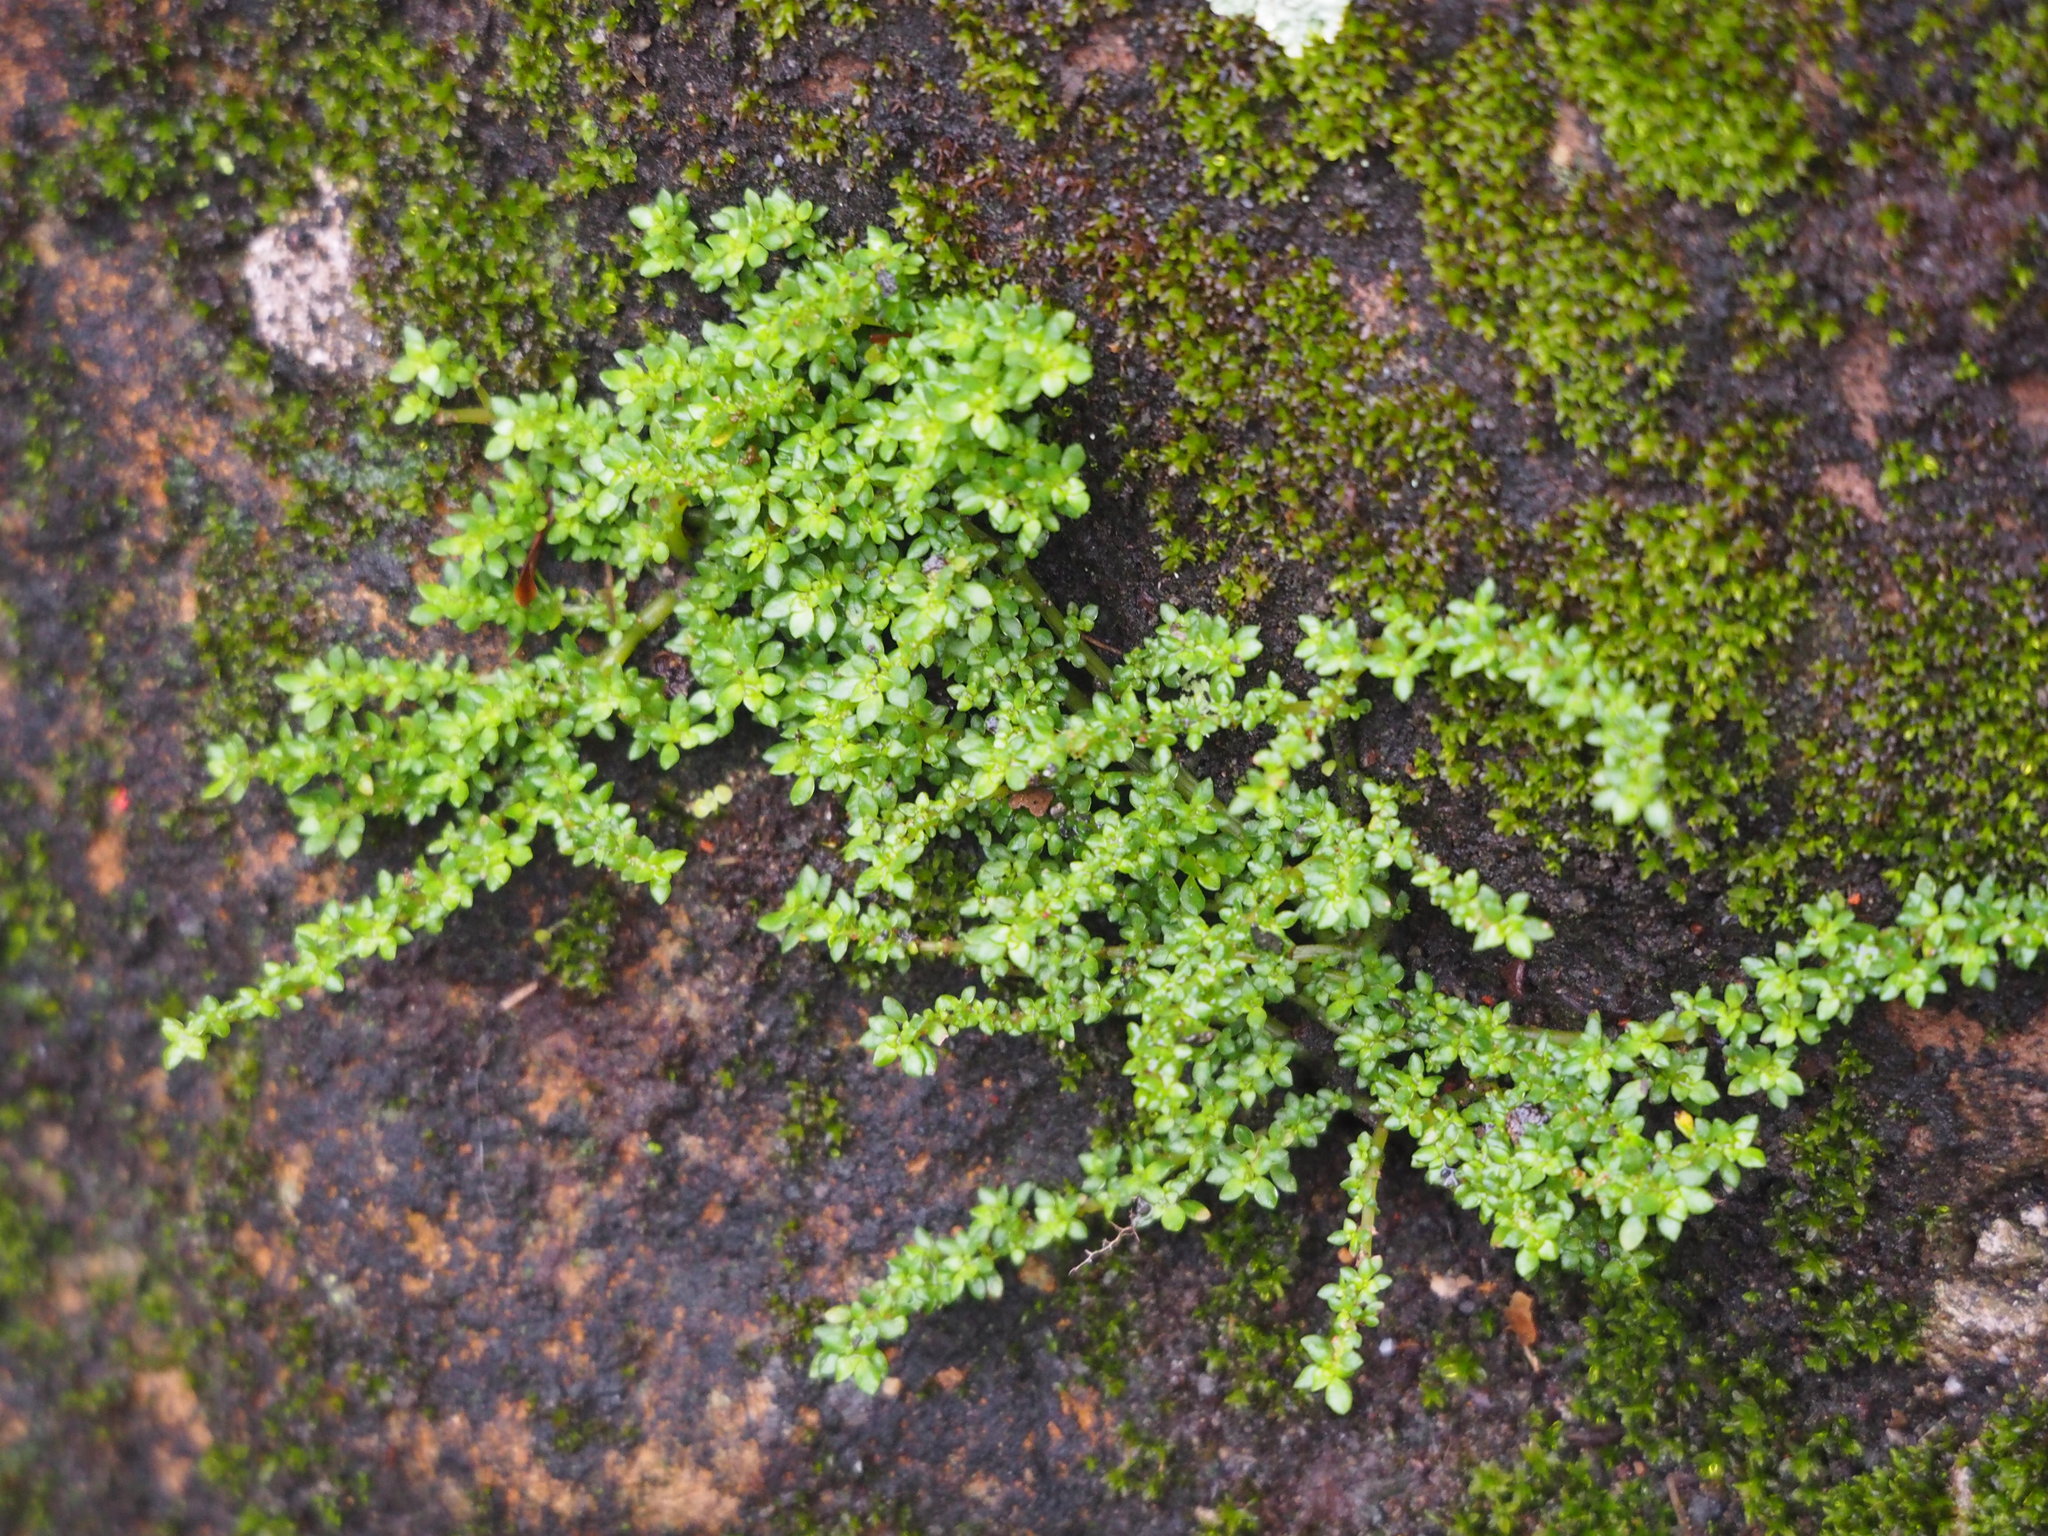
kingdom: Plantae
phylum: Tracheophyta
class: Magnoliopsida
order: Rosales
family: Urticaceae
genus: Pilea
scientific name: Pilea microphylla
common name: Artillery-plant
